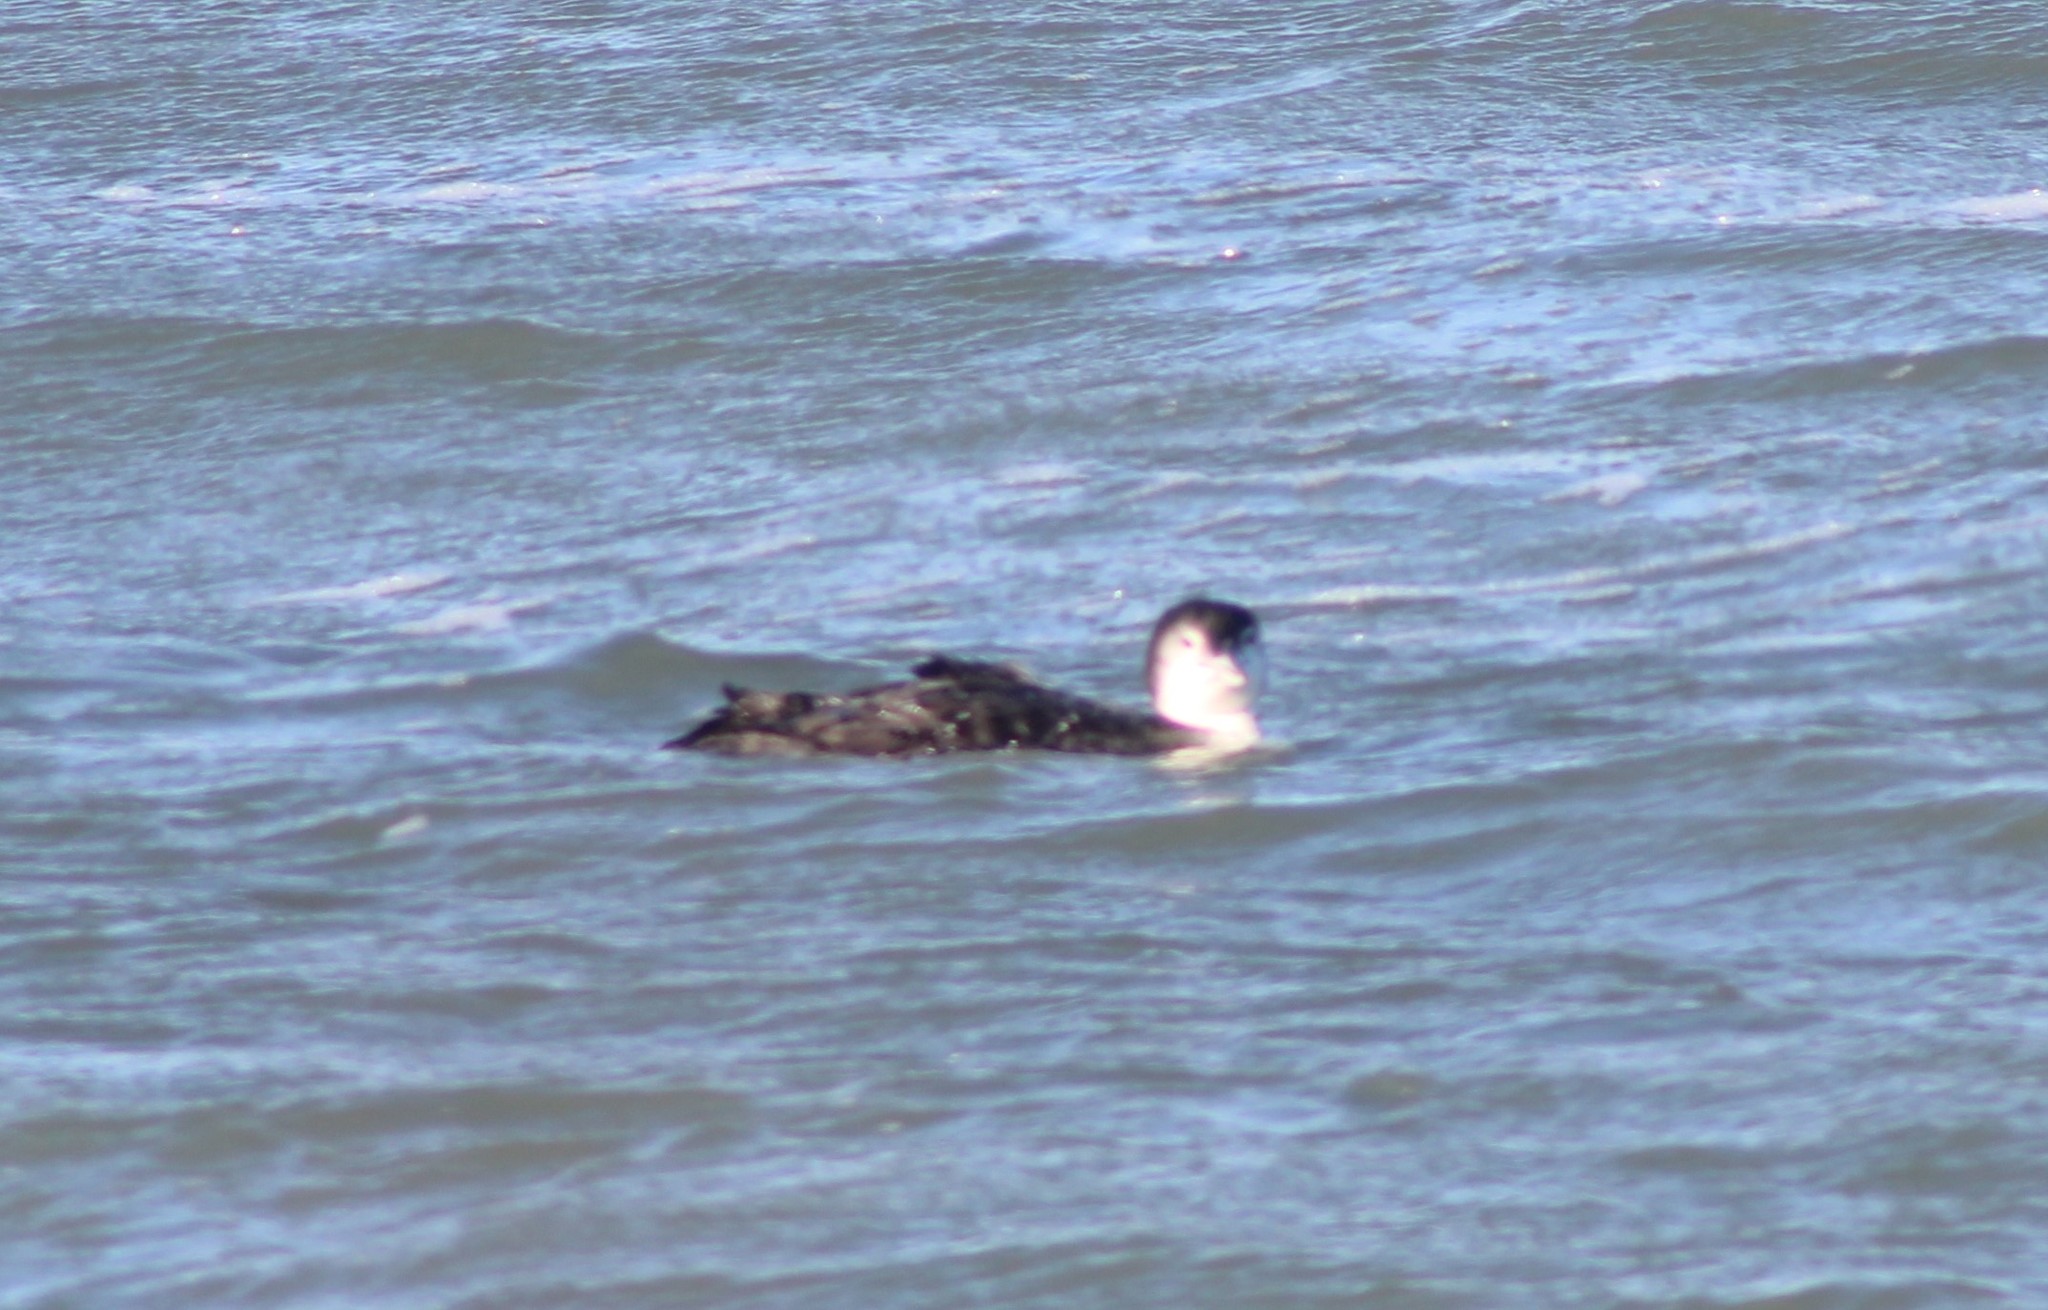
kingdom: Animalia
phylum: Chordata
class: Aves
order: Gaviiformes
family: Gaviidae
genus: Gavia
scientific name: Gavia immer
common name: Common loon
